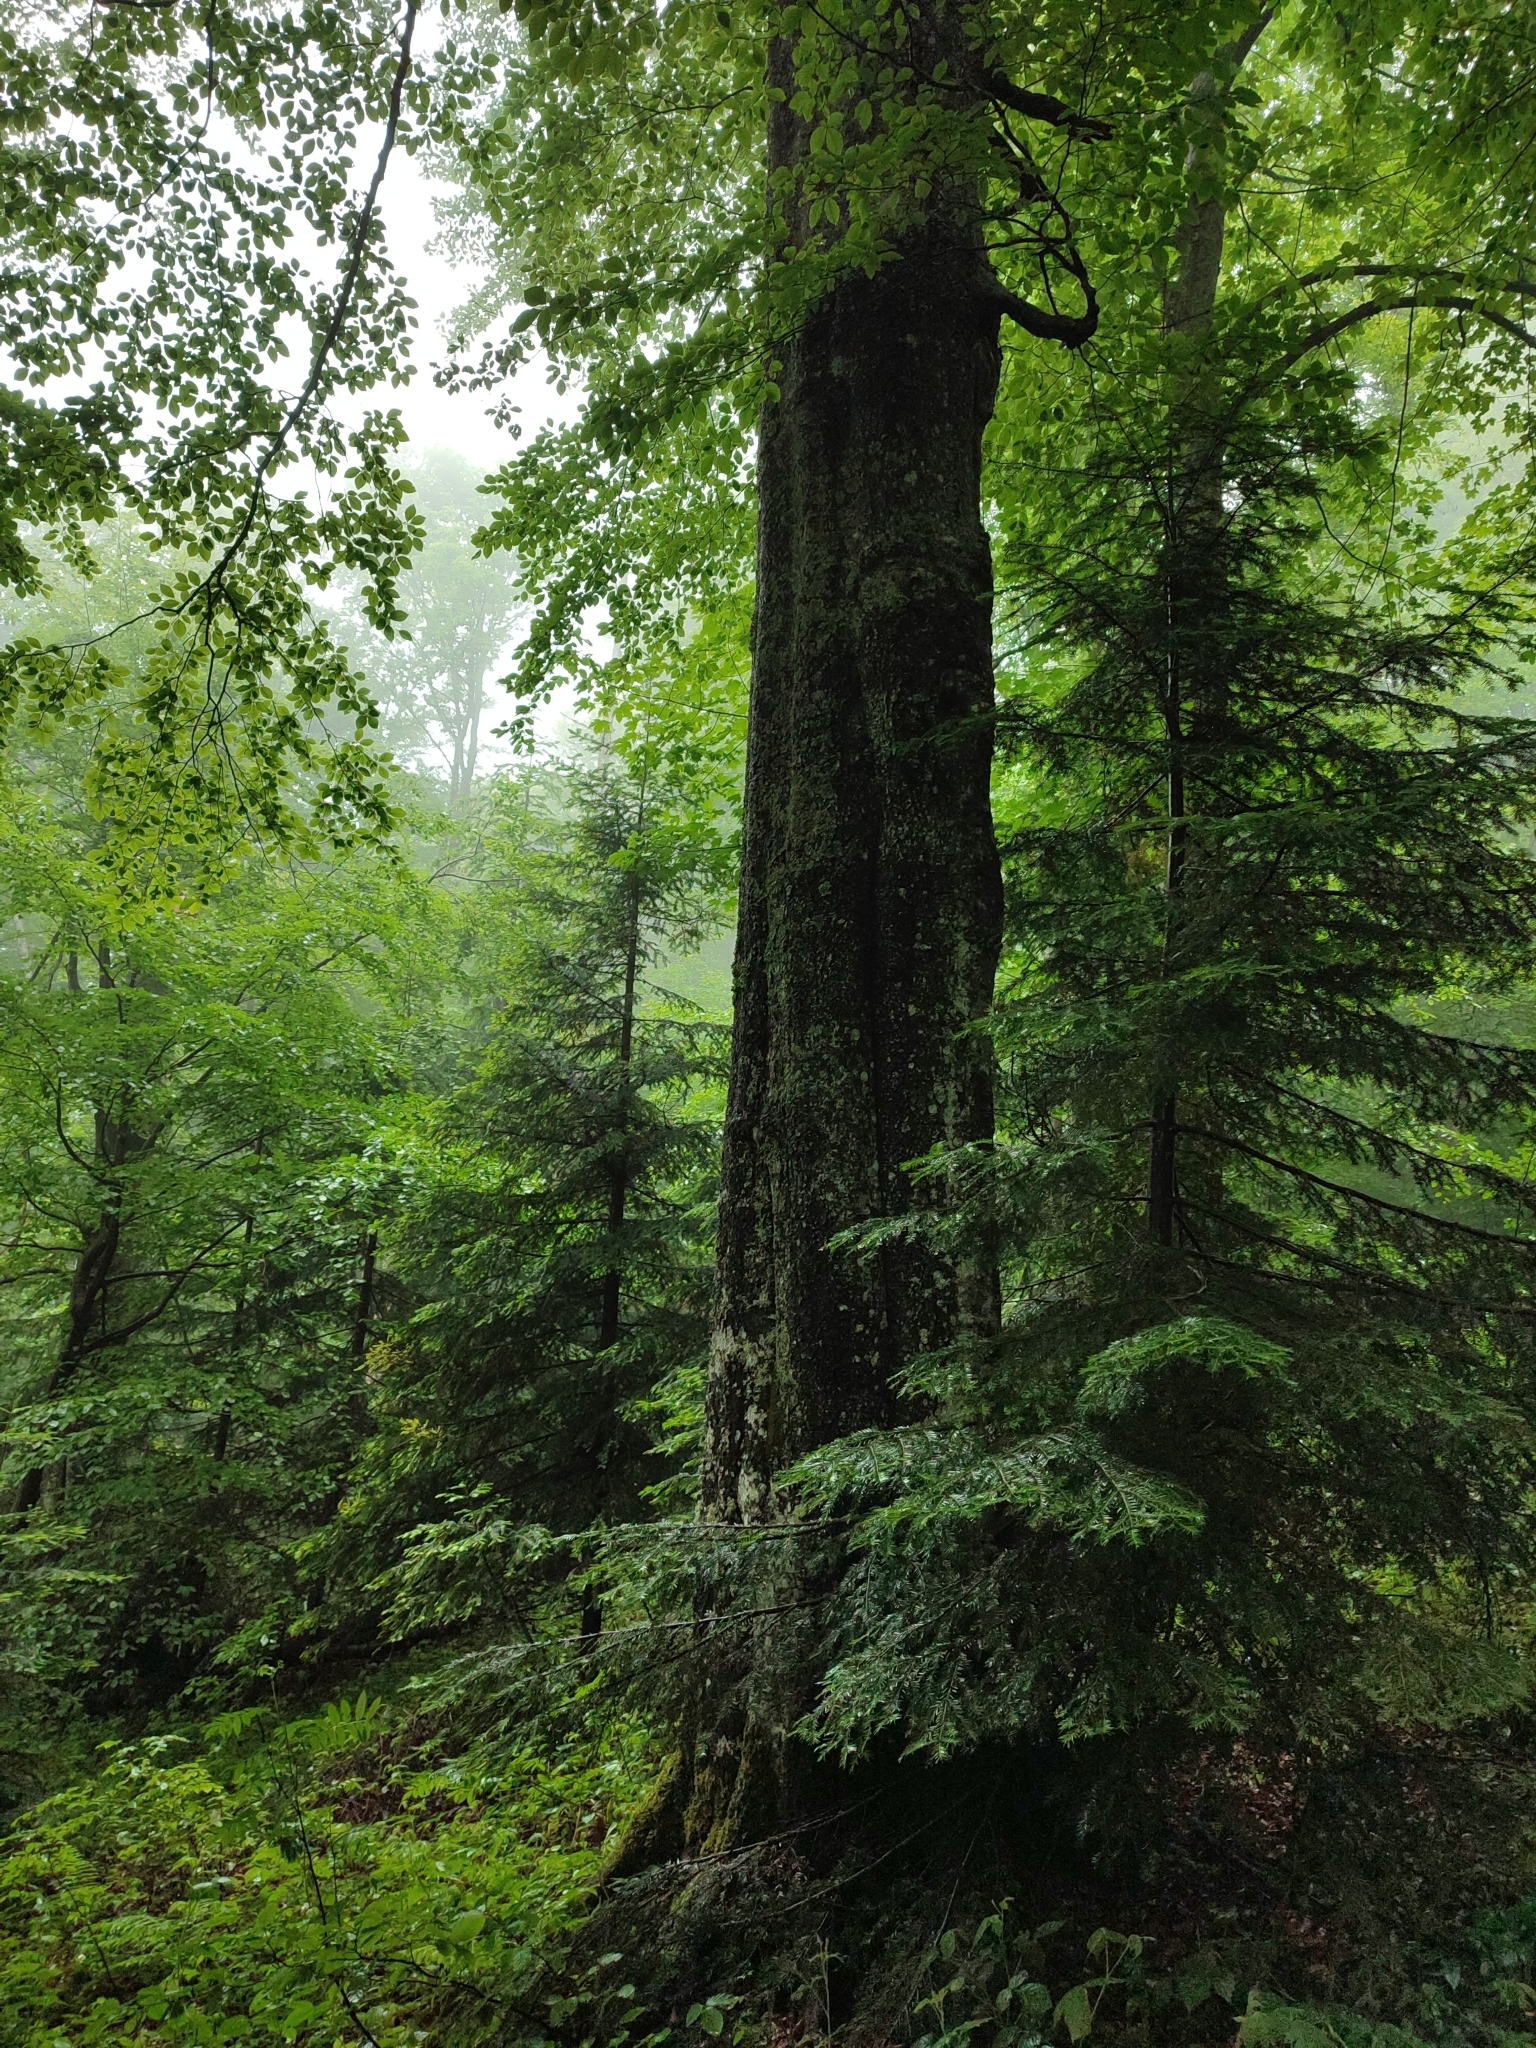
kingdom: Plantae
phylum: Tracheophyta
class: Magnoliopsida
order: Fagales
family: Fagaceae
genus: Fagus
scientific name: Fagus sylvatica
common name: Beech
